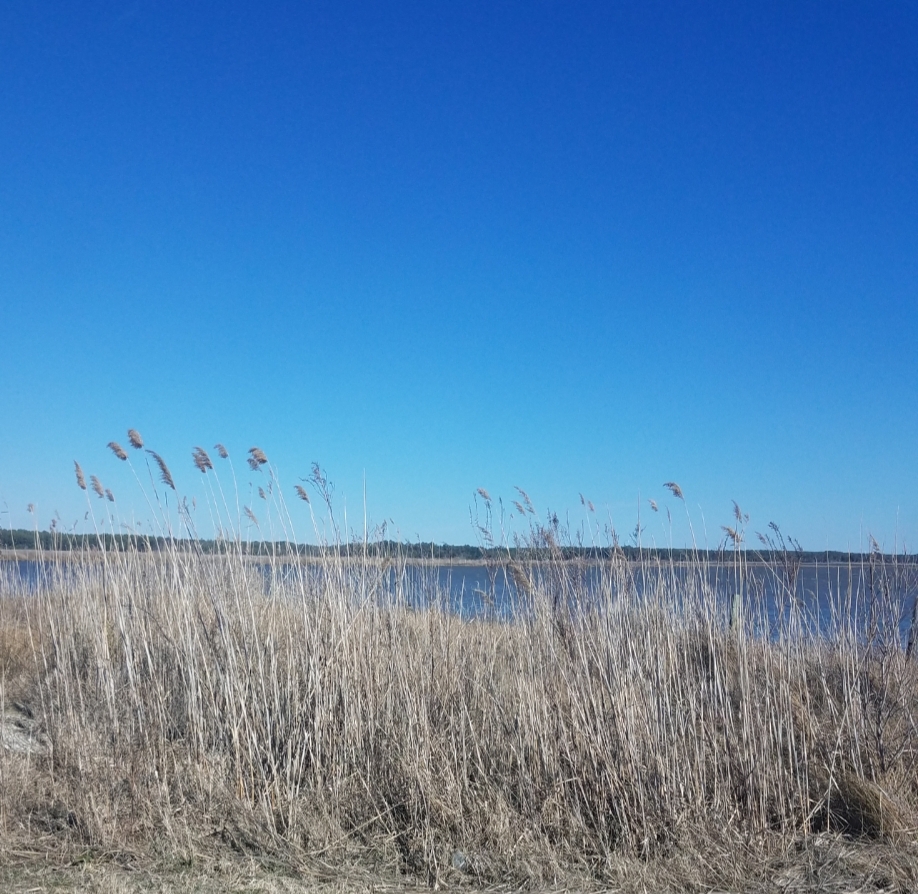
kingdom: Plantae
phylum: Tracheophyta
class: Liliopsida
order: Poales
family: Poaceae
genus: Phragmites
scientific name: Phragmites australis
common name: Common reed
